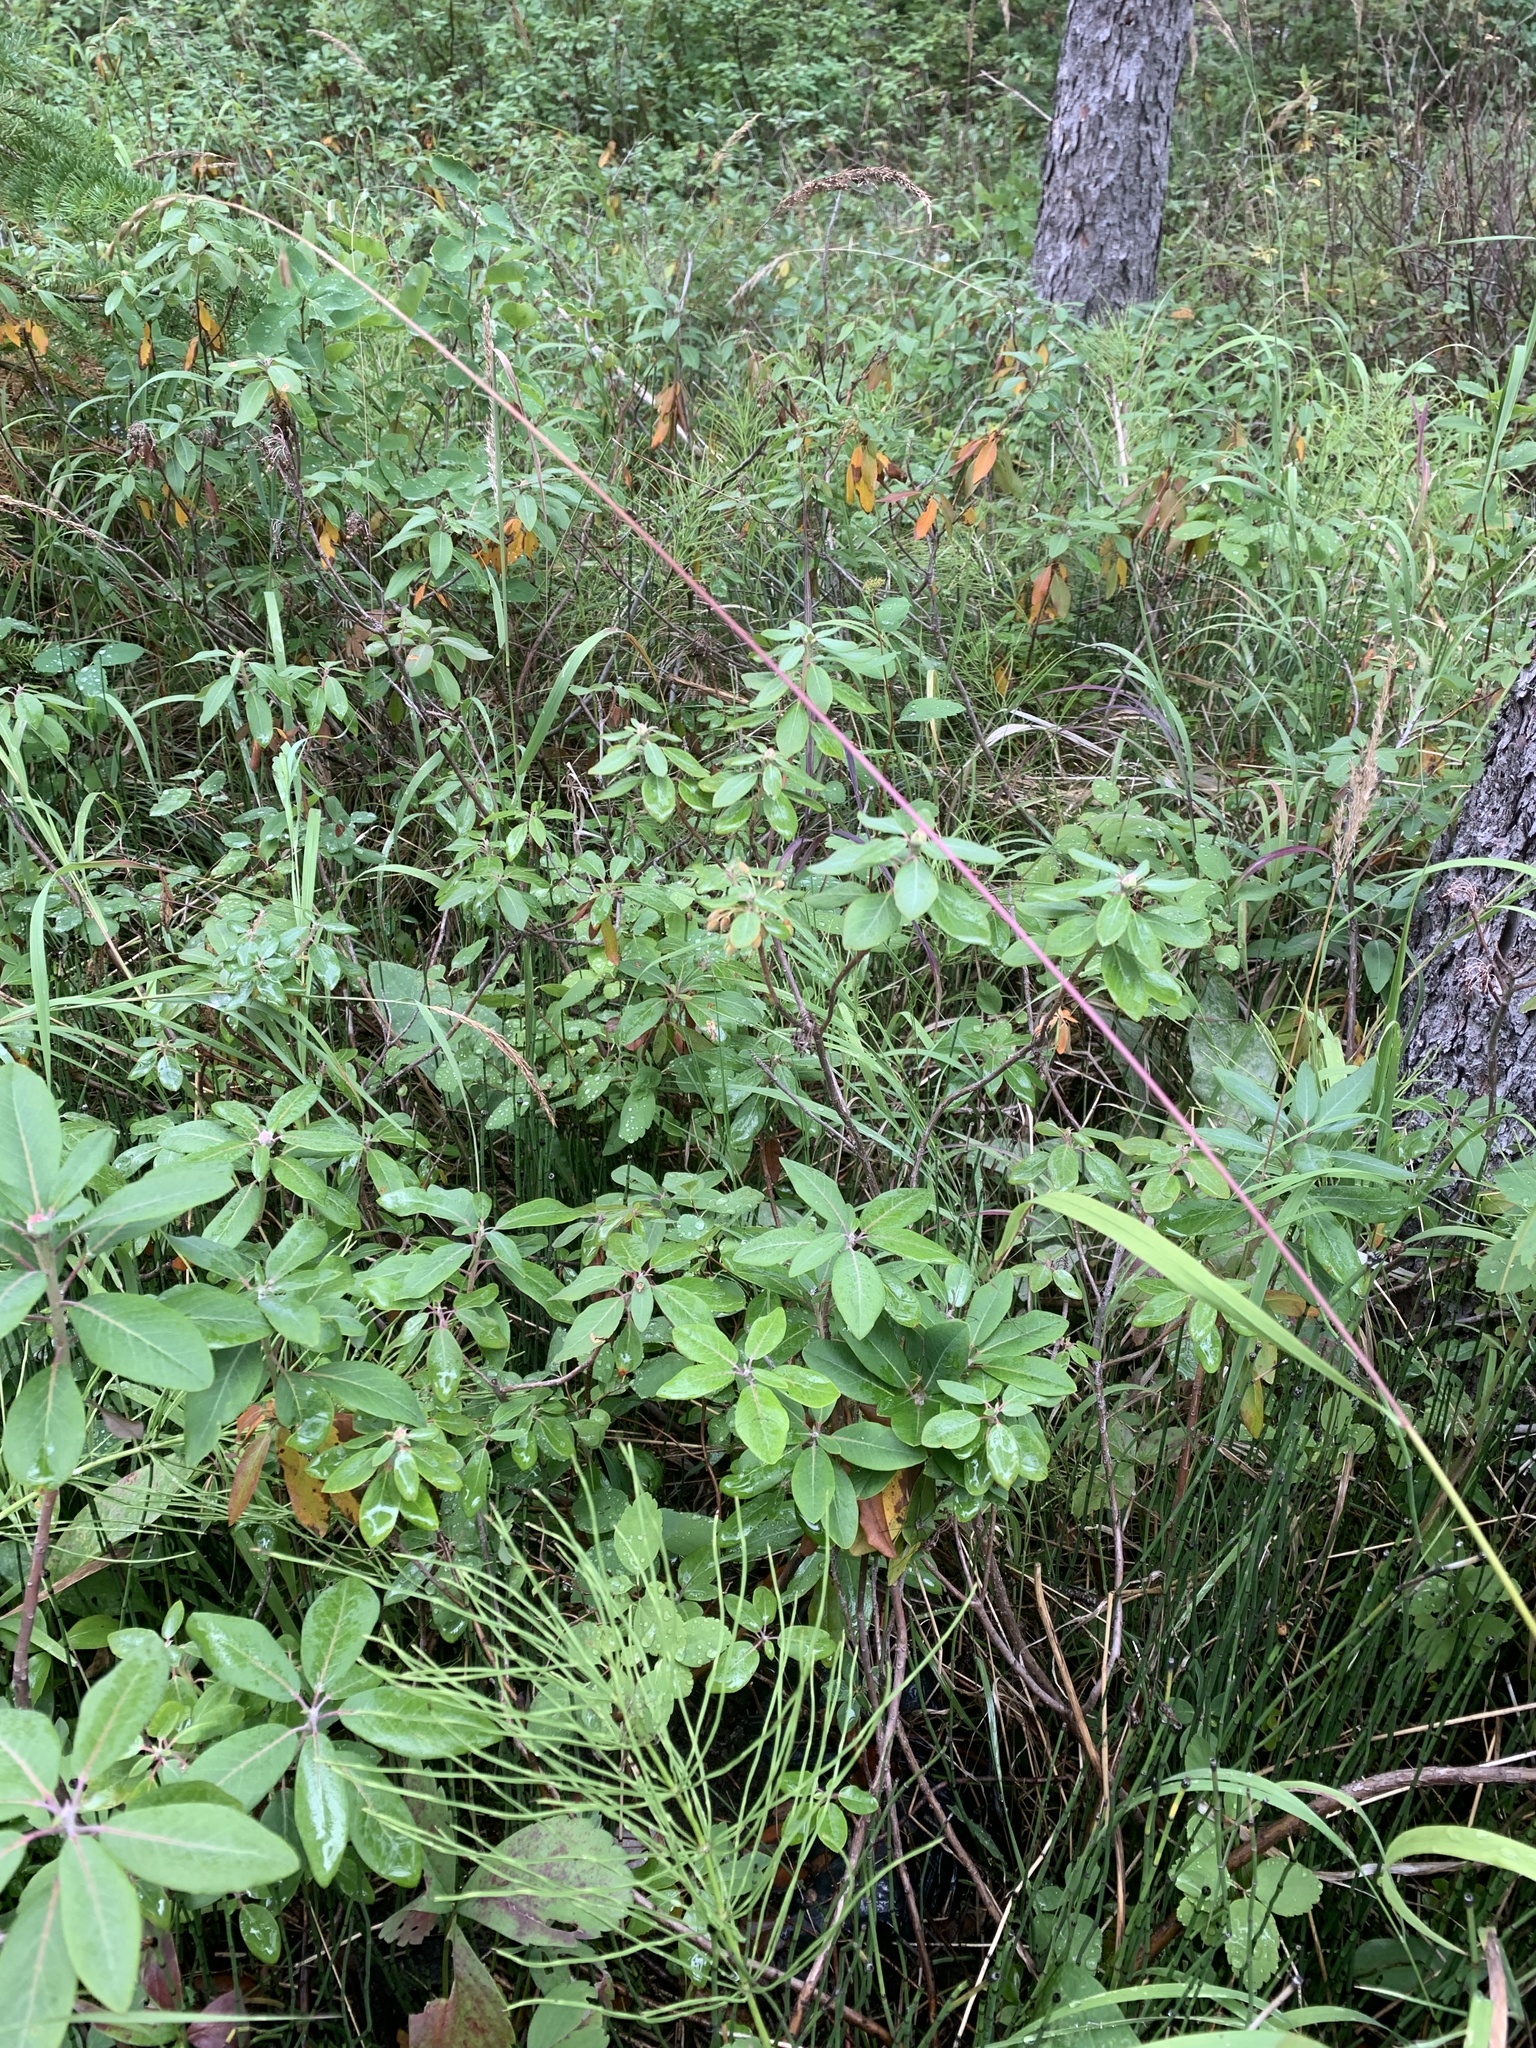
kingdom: Plantae
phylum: Tracheophyta
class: Magnoliopsida
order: Ericales
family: Ericaceae
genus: Rhododendron
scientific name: Rhododendron columbianum
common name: Western labrador tea
